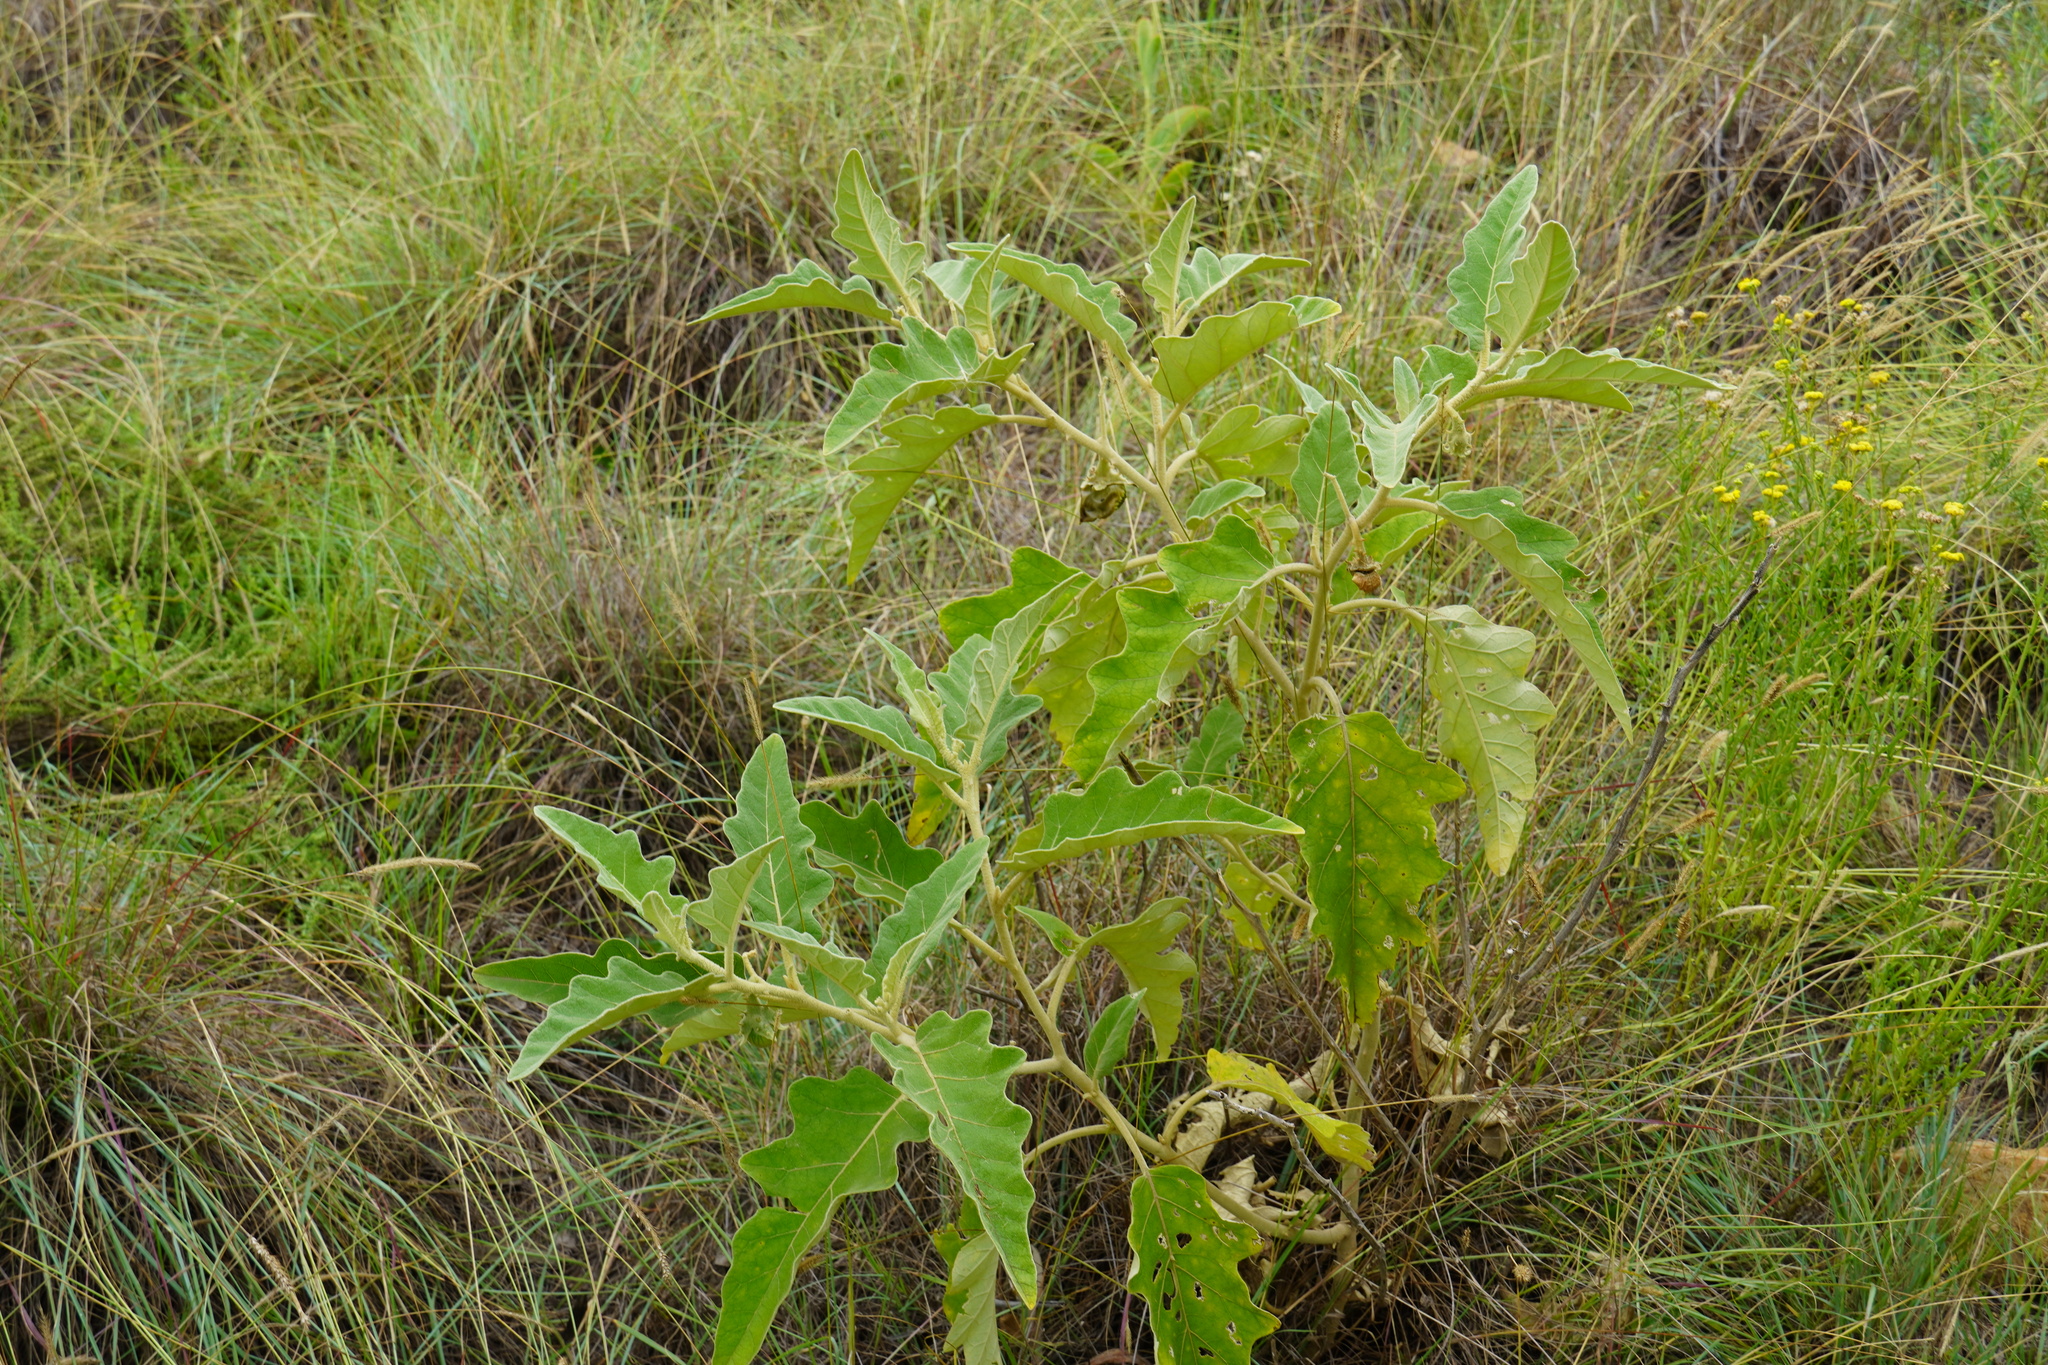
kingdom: Plantae
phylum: Tracheophyta
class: Magnoliopsida
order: Solanales
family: Solanaceae
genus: Solanum
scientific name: Solanum lichtensteinii
